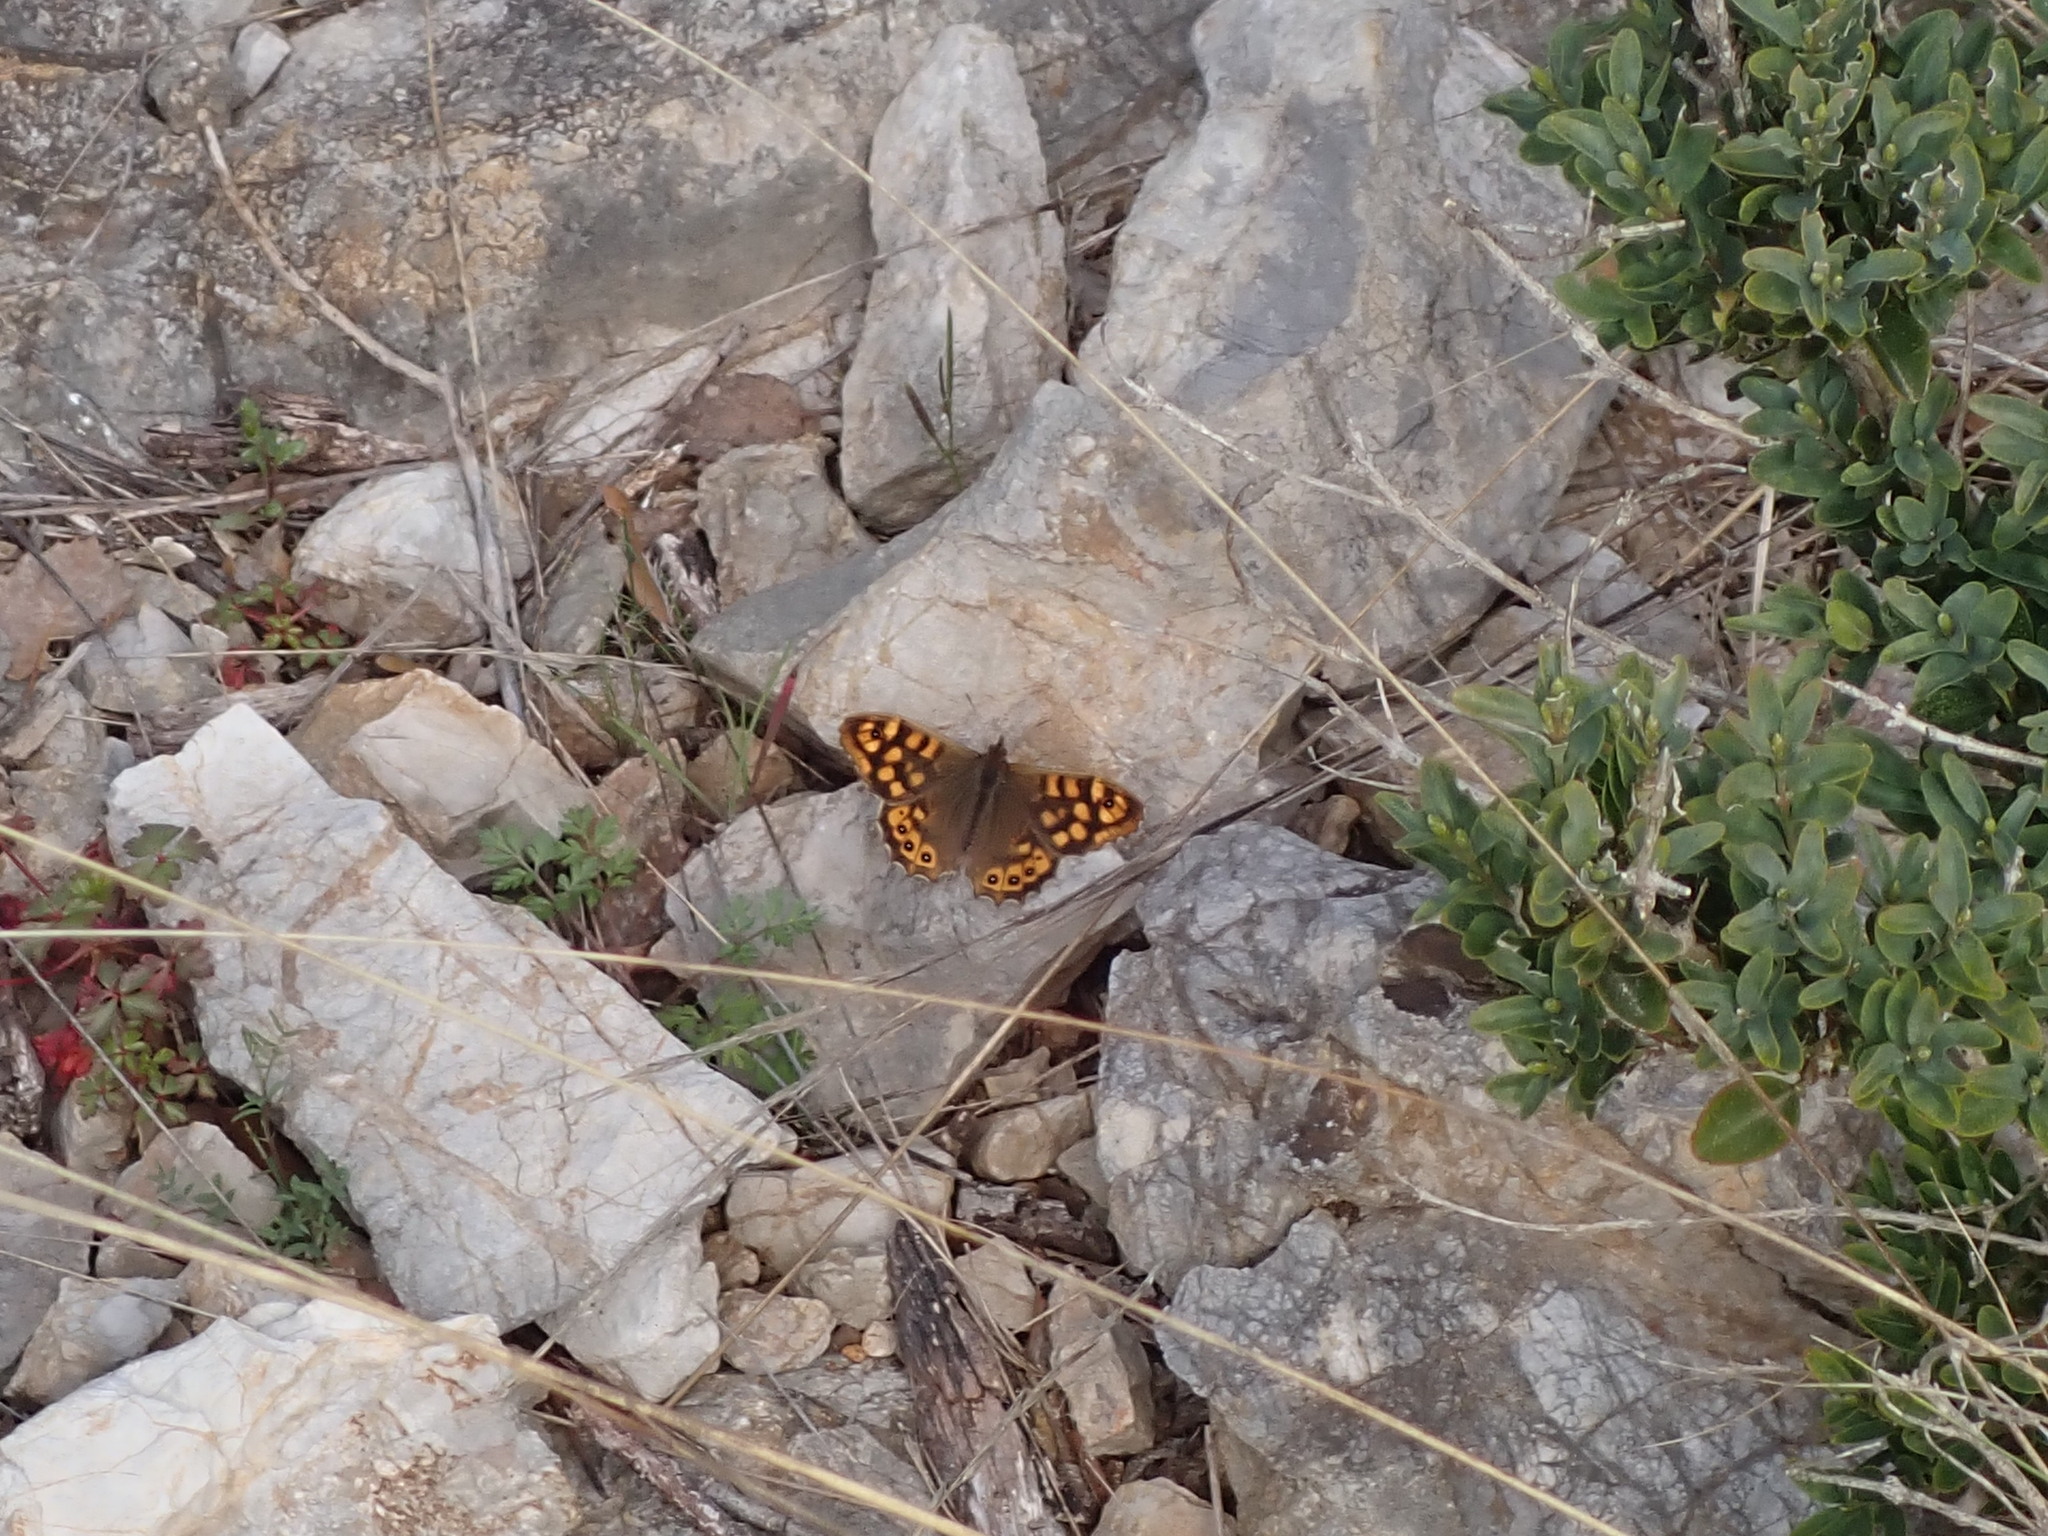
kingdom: Animalia
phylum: Arthropoda
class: Insecta
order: Lepidoptera
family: Nymphalidae
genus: Pararge
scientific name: Pararge aegeria
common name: Speckled wood
